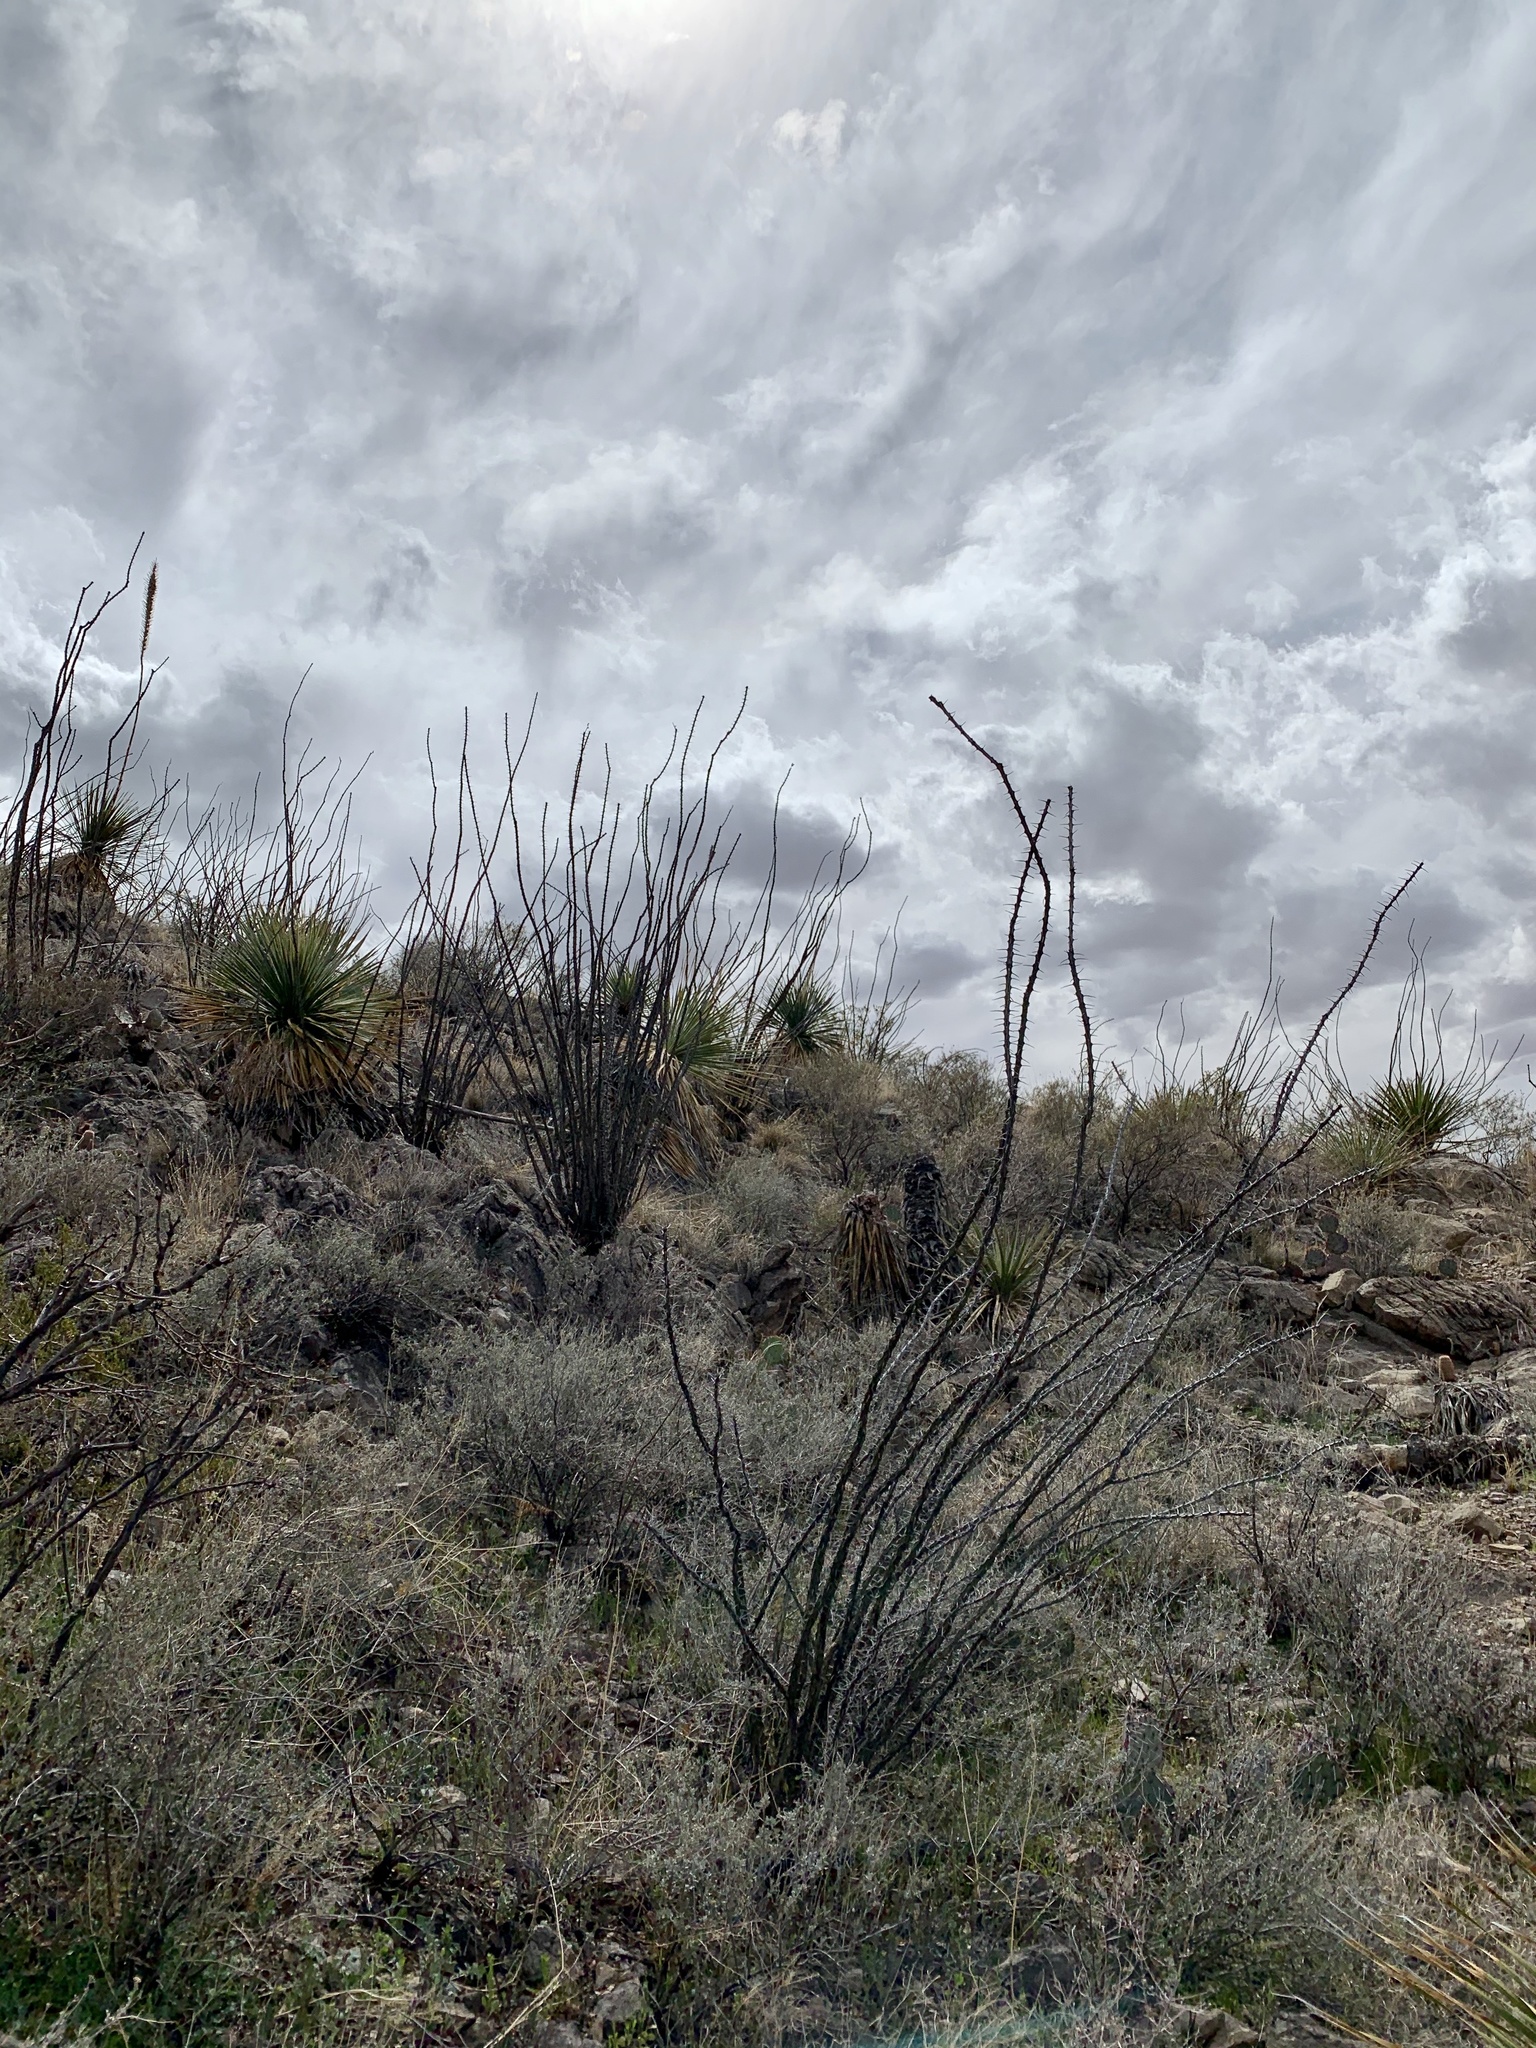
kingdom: Plantae
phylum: Tracheophyta
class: Magnoliopsida
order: Ericales
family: Fouquieriaceae
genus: Fouquieria
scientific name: Fouquieria splendens
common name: Vine-cactus
